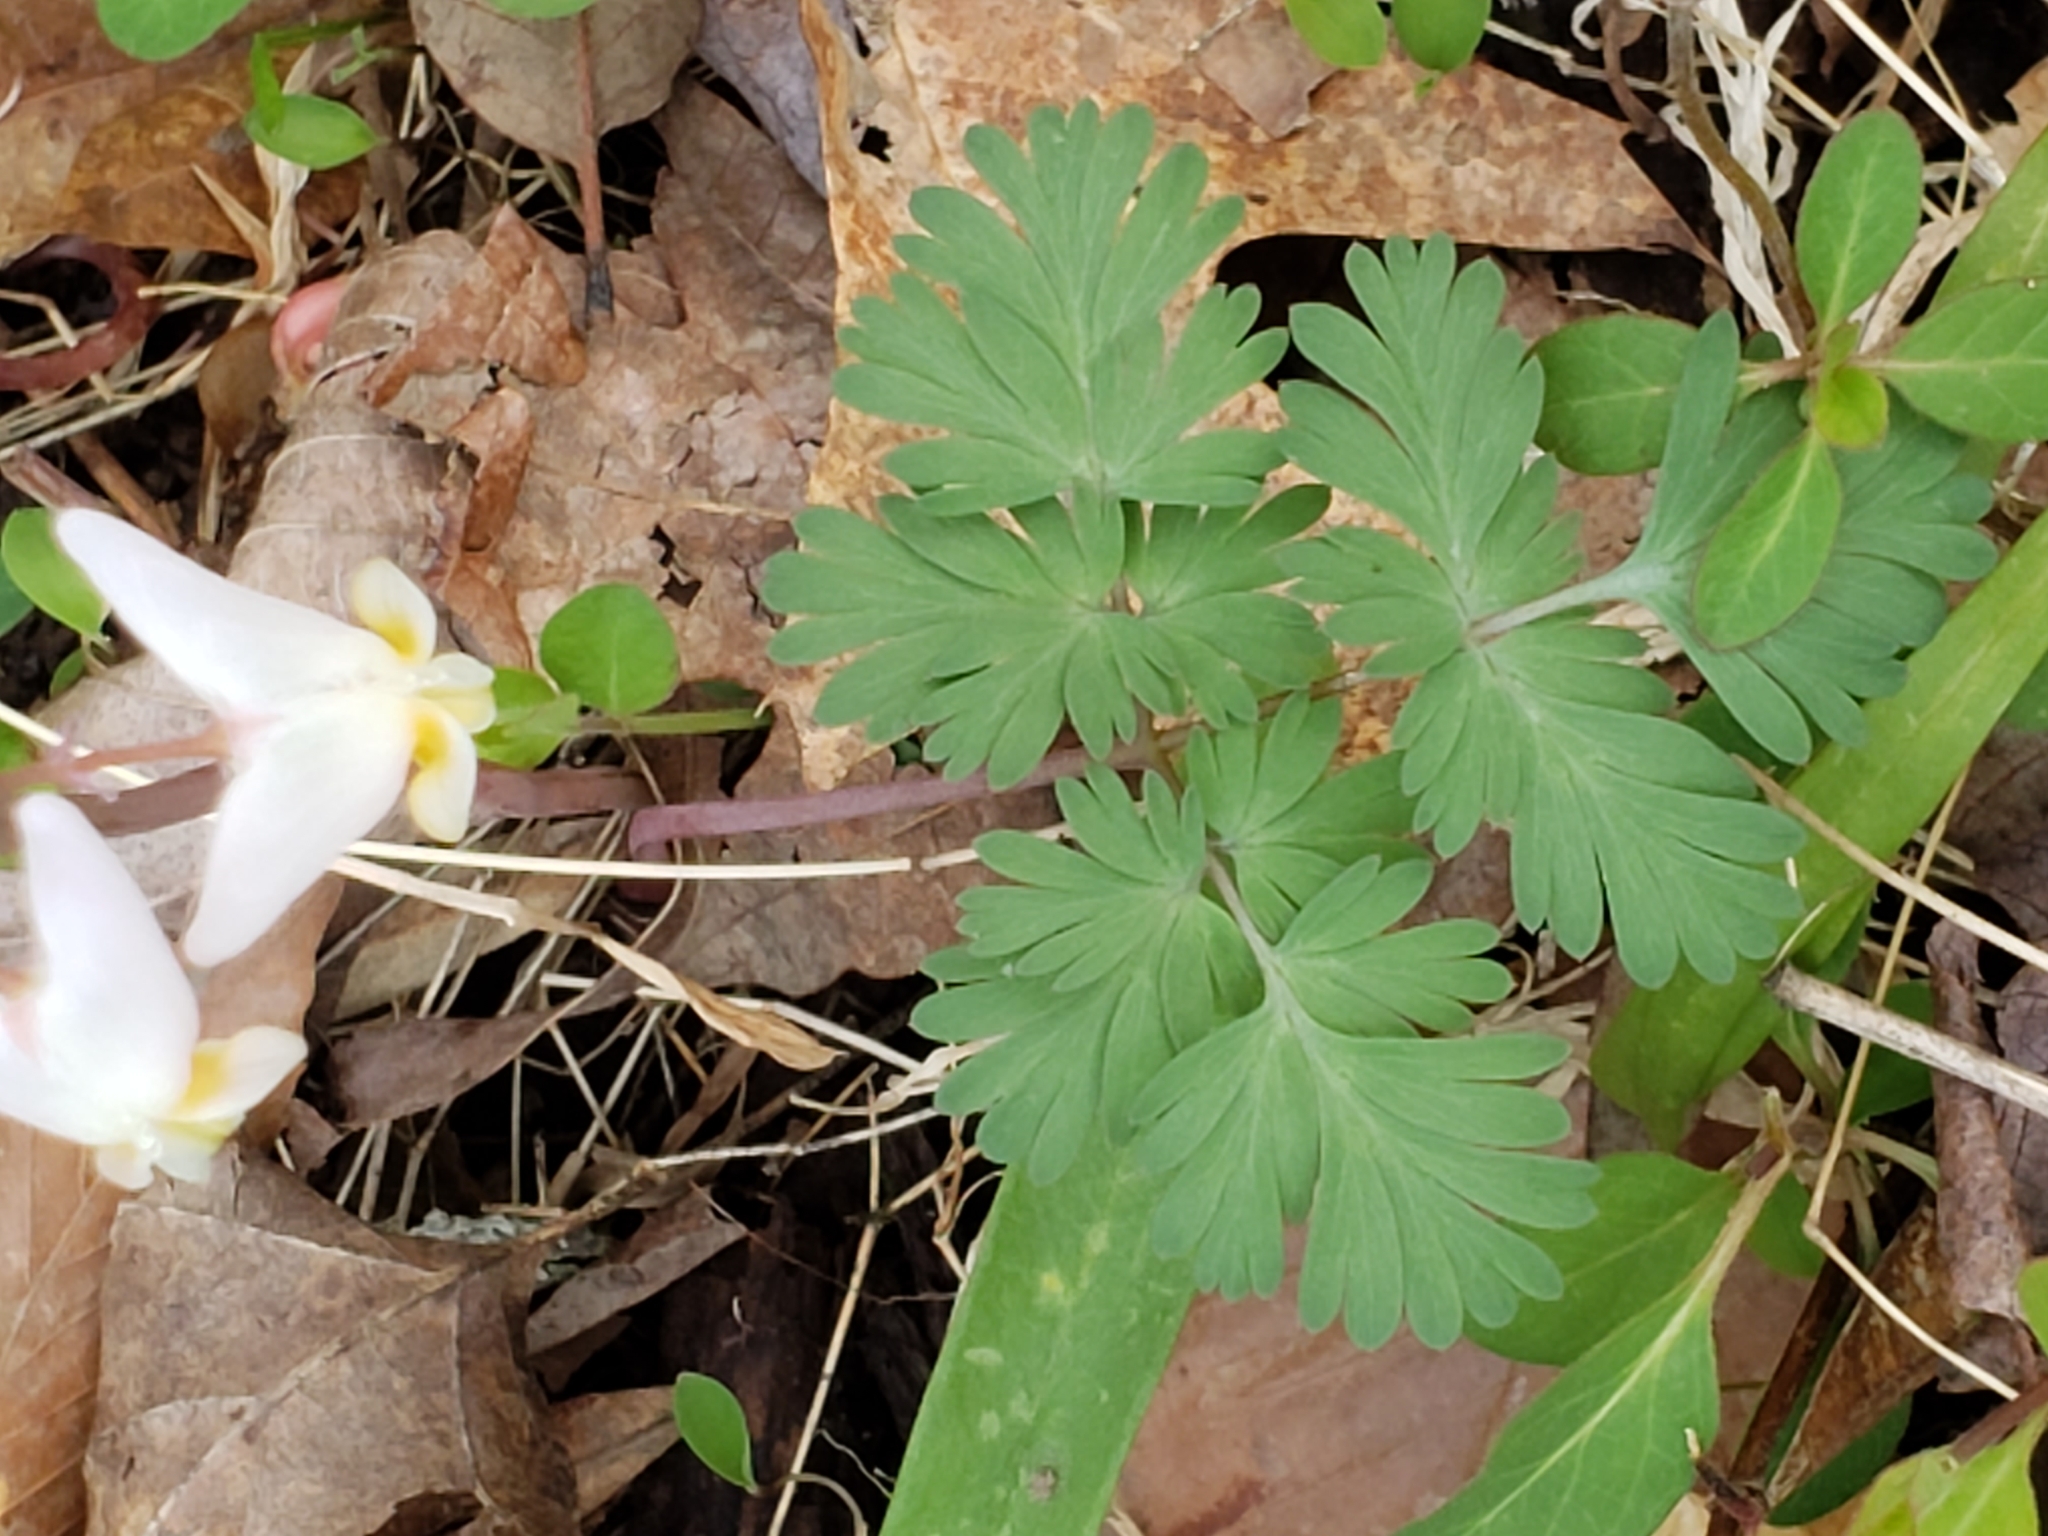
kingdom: Plantae
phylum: Tracheophyta
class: Magnoliopsida
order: Ranunculales
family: Papaveraceae
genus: Dicentra
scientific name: Dicentra cucullaria
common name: Dutchman's breeches
